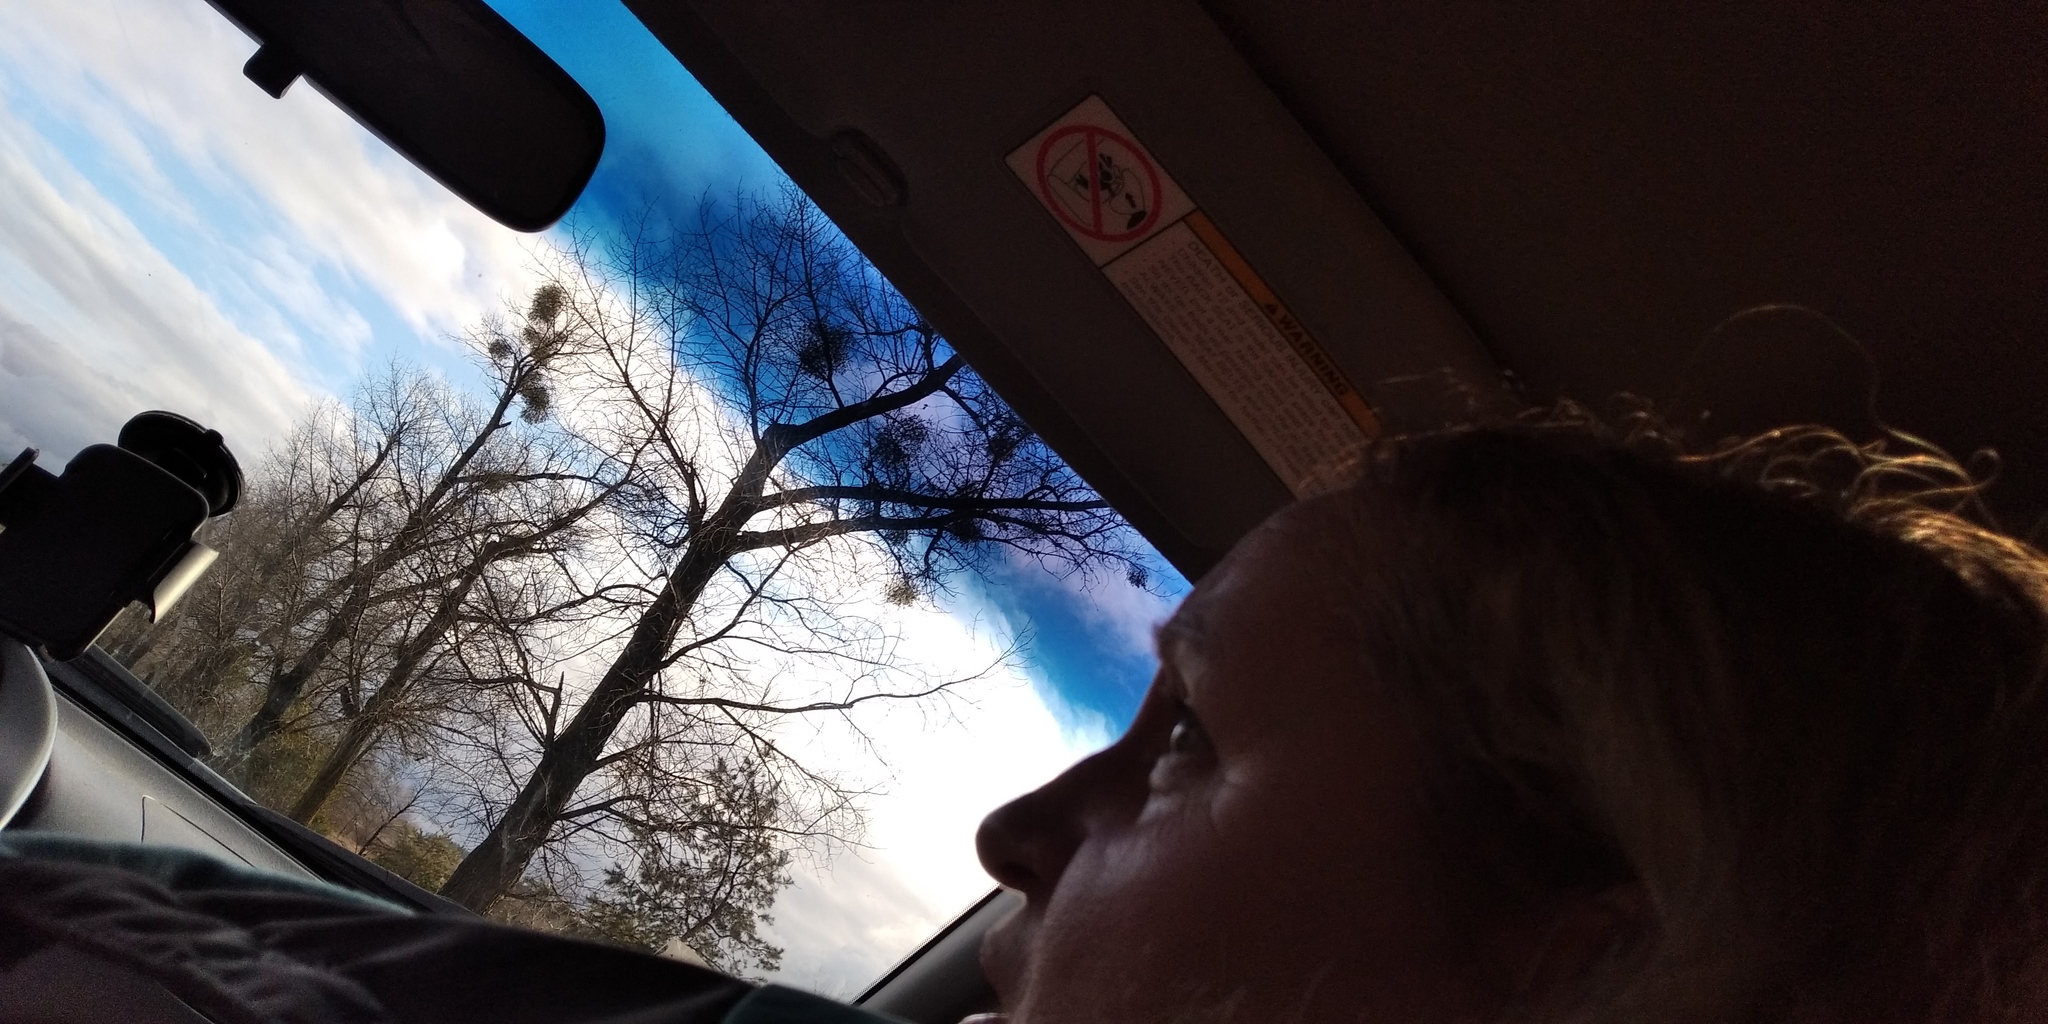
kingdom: Plantae
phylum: Tracheophyta
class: Magnoliopsida
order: Santalales
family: Viscaceae
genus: Viscum
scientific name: Viscum album
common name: Mistletoe
